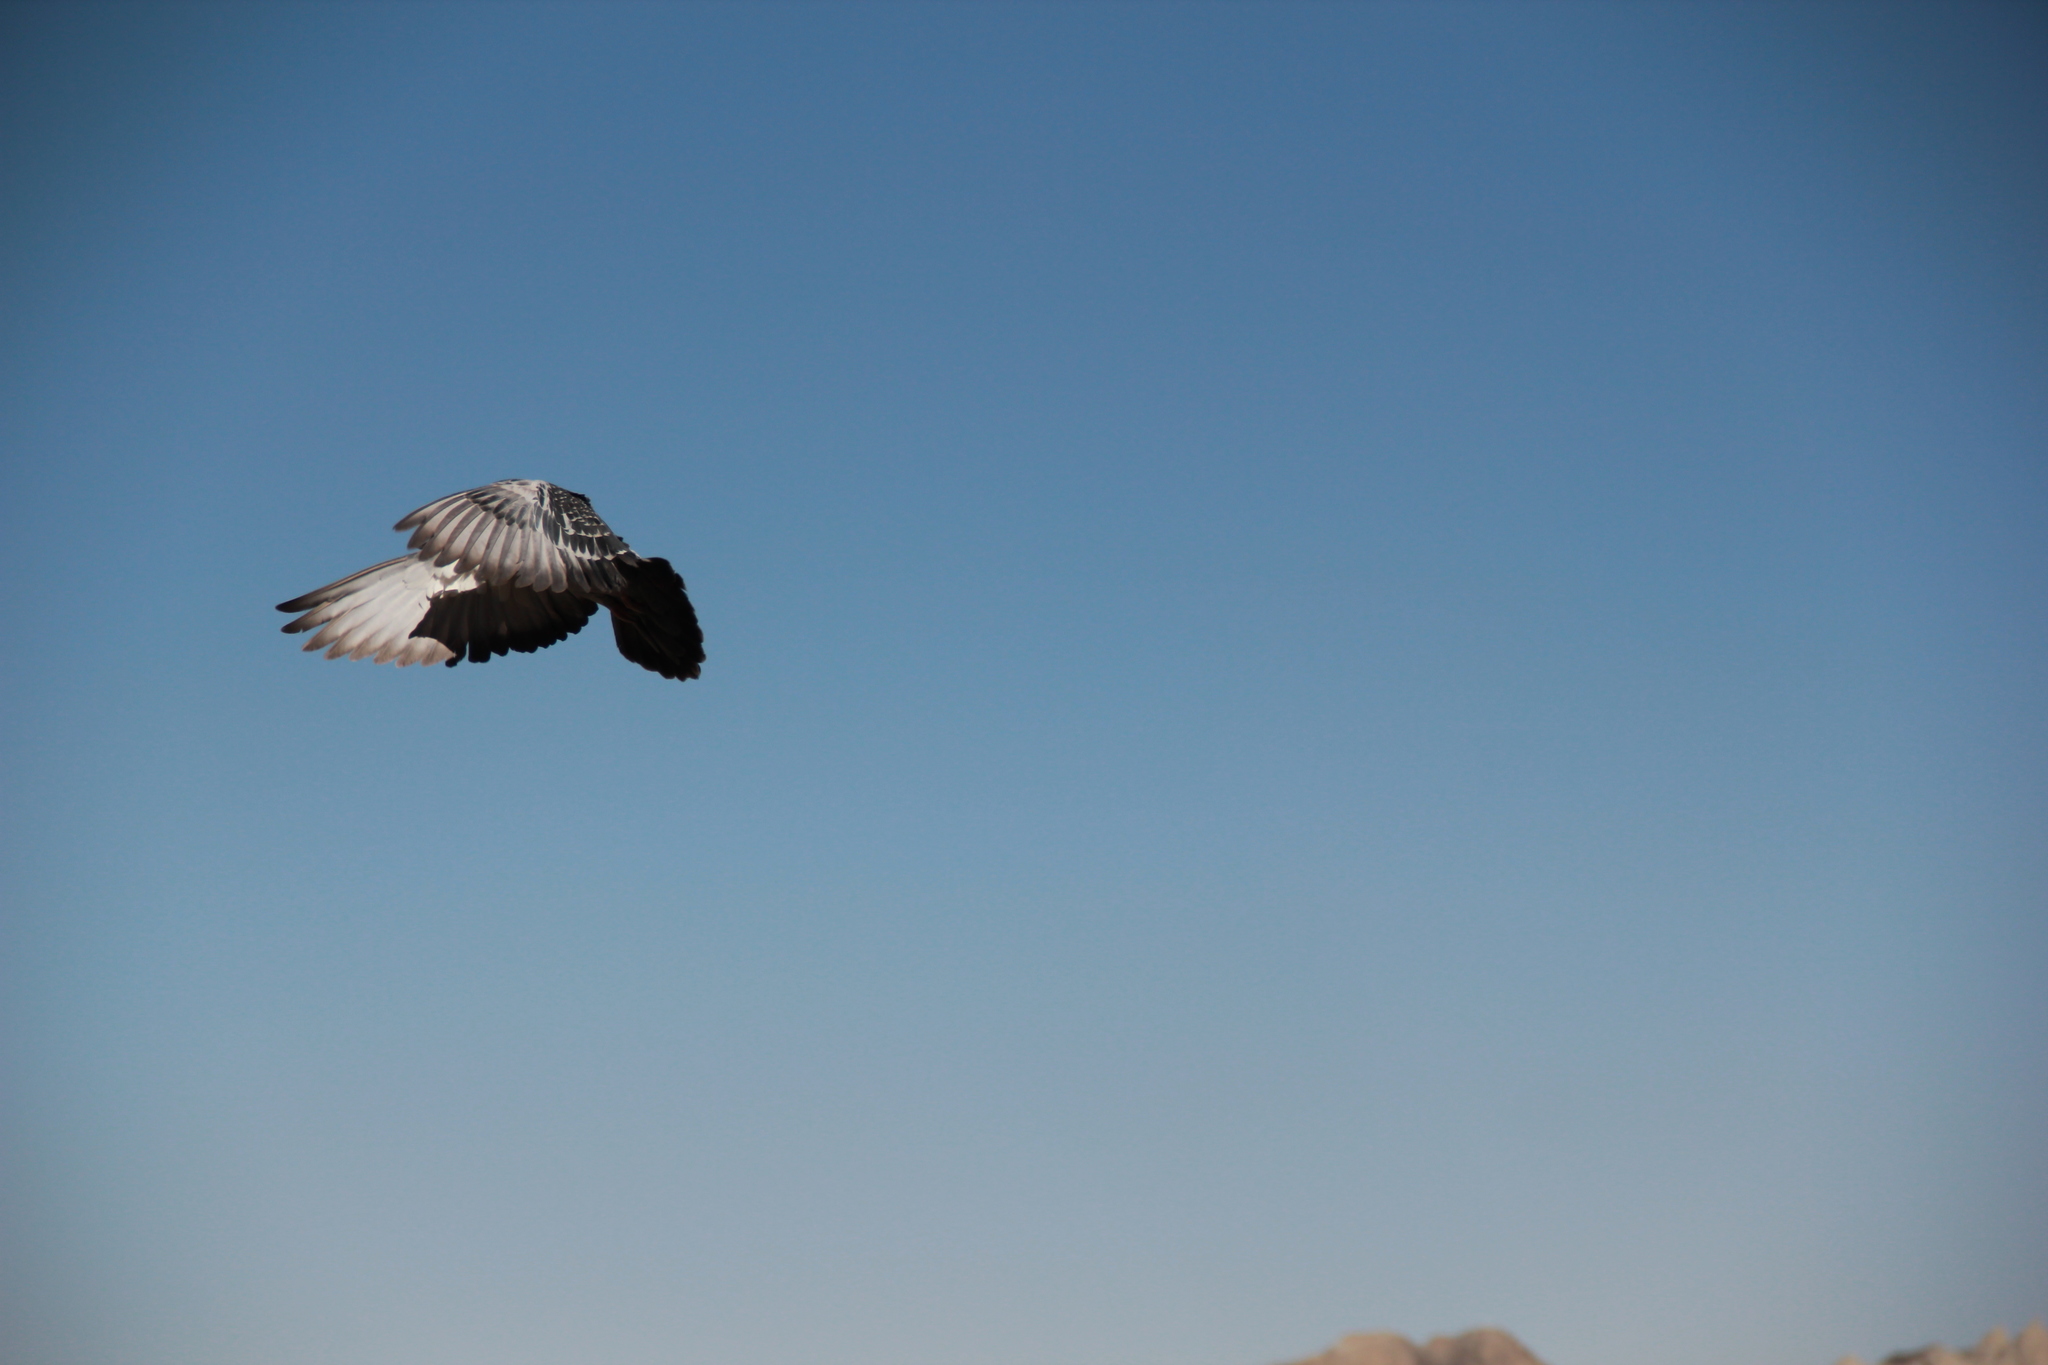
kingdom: Animalia
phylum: Chordata
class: Aves
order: Columbiformes
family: Columbidae
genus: Columba
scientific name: Columba livia
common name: Rock pigeon
